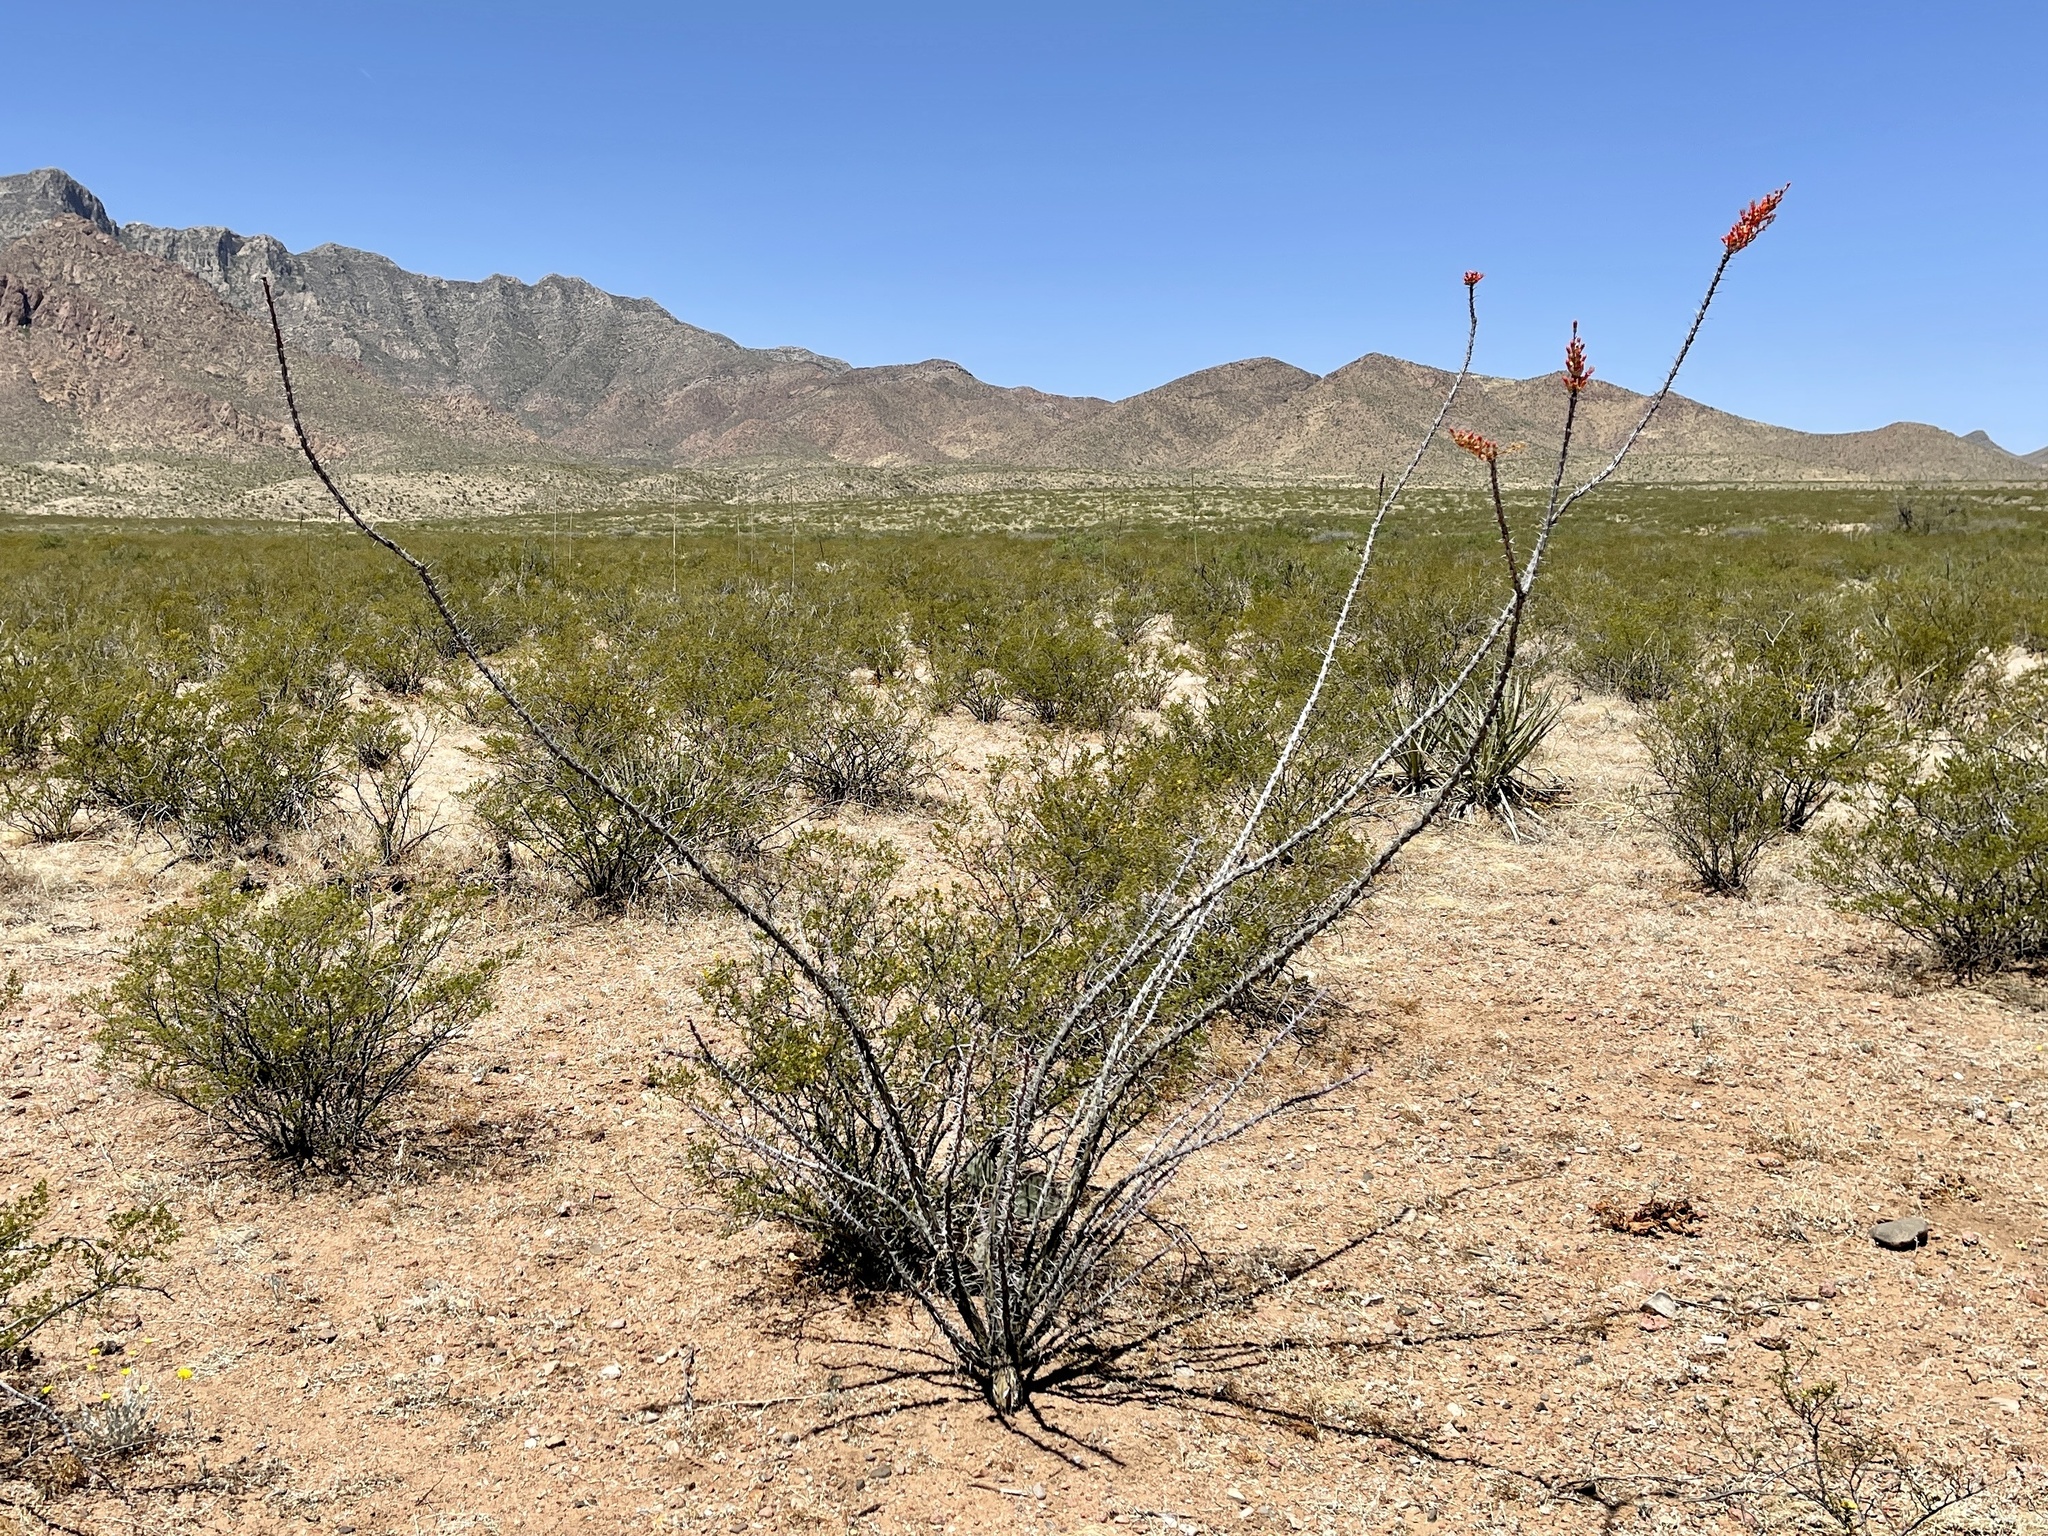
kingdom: Plantae
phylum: Tracheophyta
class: Magnoliopsida
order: Ericales
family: Fouquieriaceae
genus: Fouquieria
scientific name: Fouquieria splendens
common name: Vine-cactus
